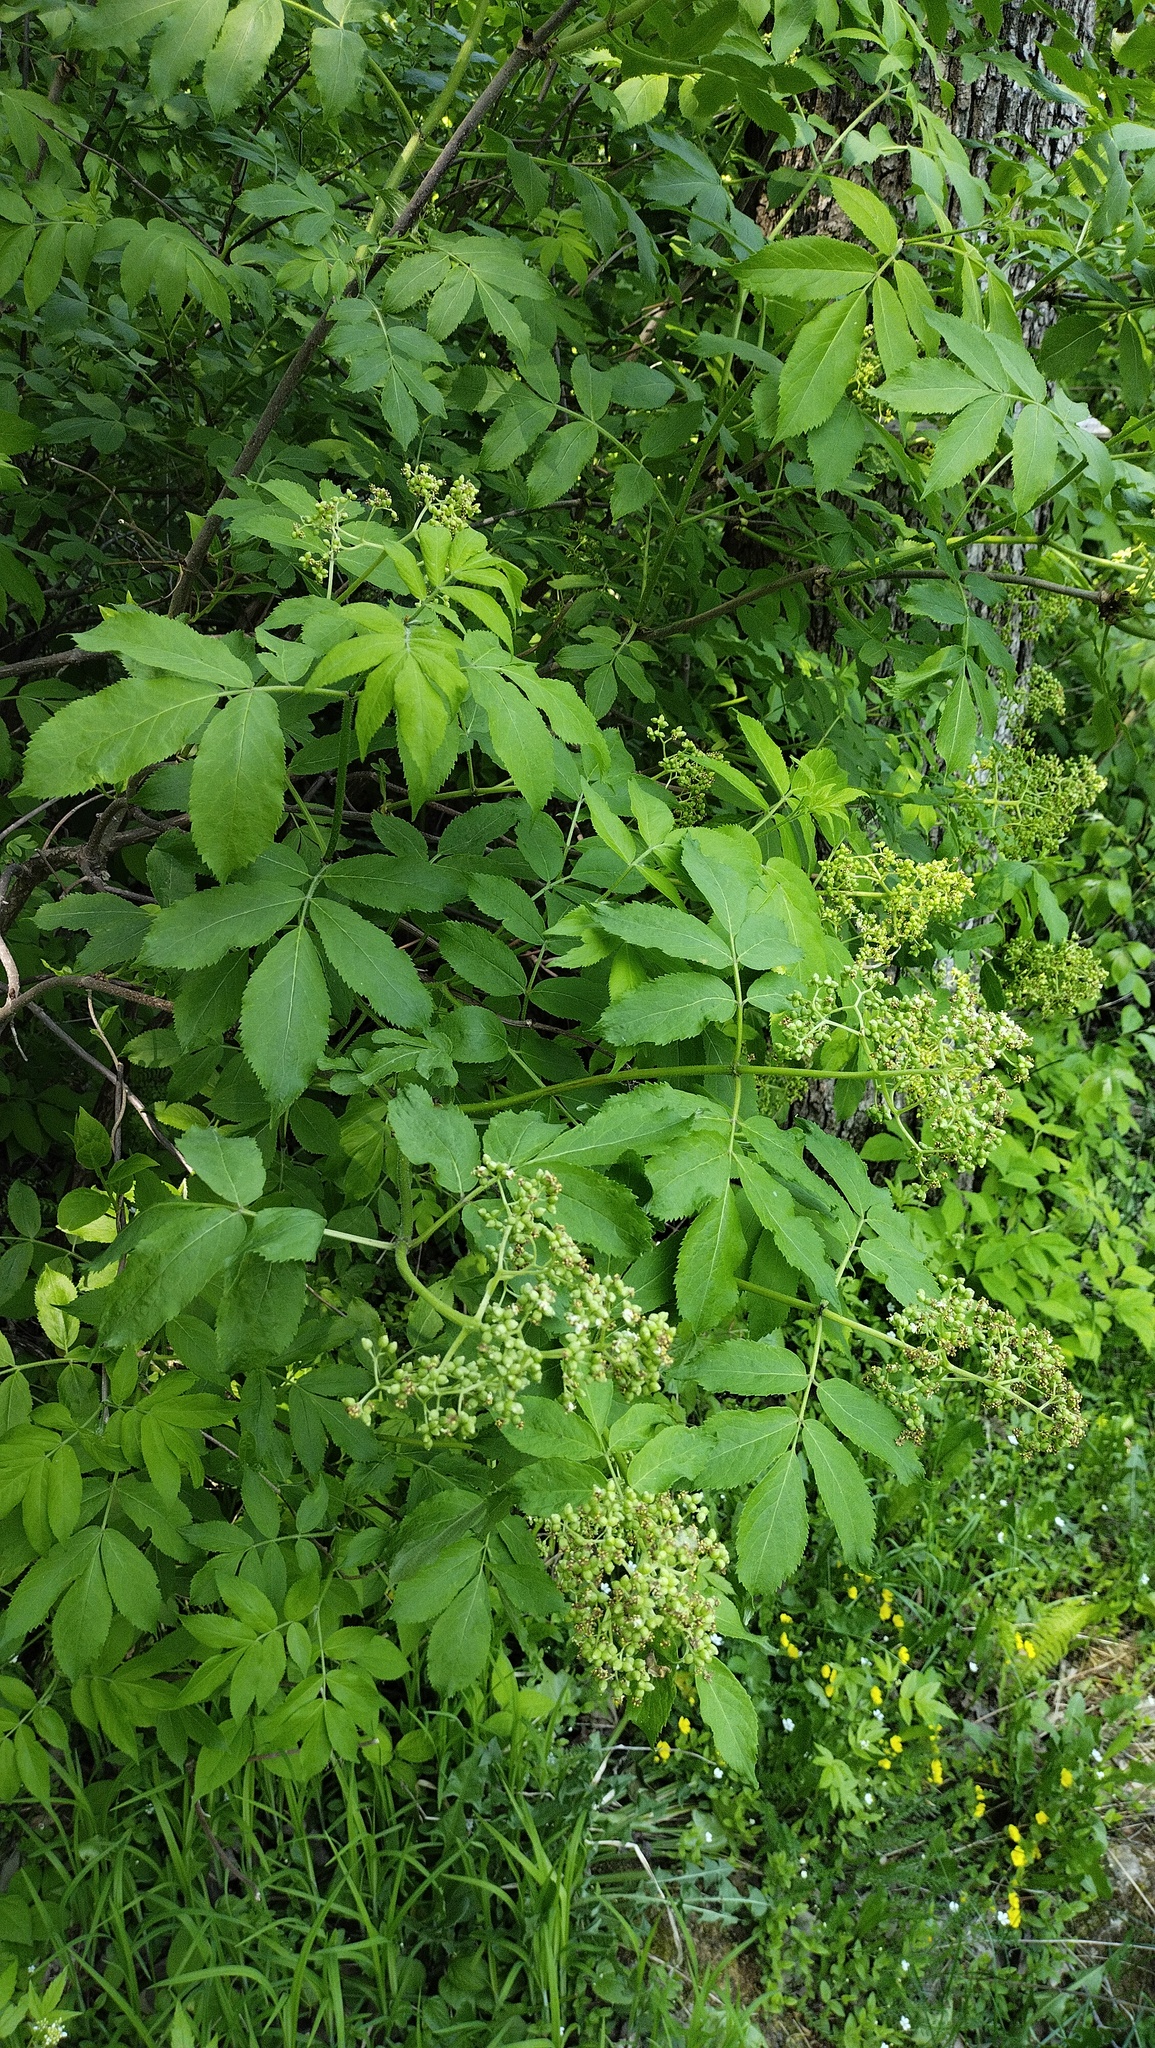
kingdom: Plantae
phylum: Tracheophyta
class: Magnoliopsida
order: Dipsacales
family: Viburnaceae
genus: Sambucus
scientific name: Sambucus sibirica
